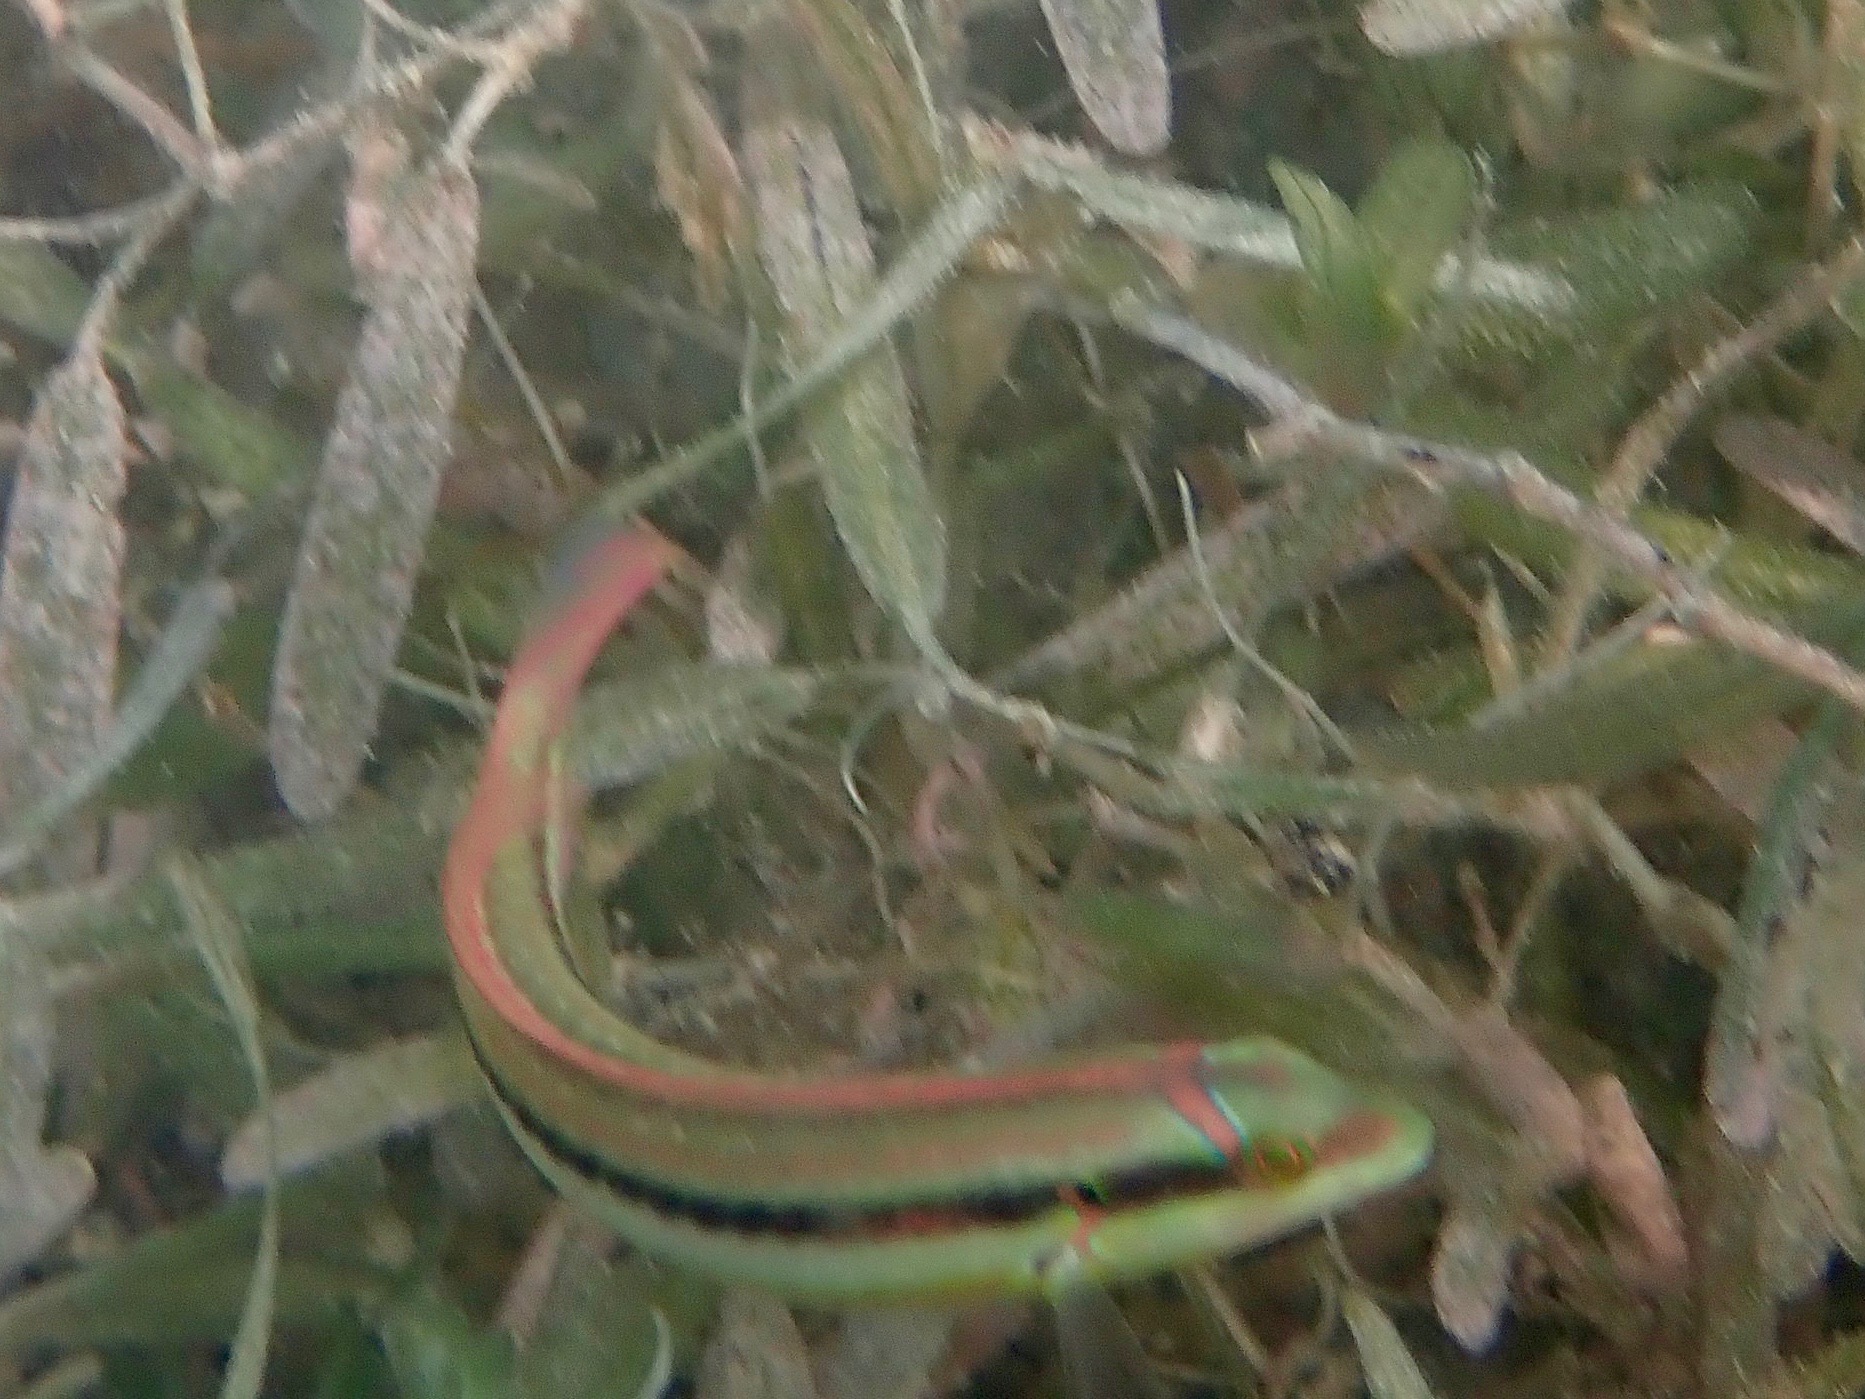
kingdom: Animalia
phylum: Chordata
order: Perciformes
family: Labridae
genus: Halichoeres
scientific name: Halichoeres bivittatus
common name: Slippery dick
